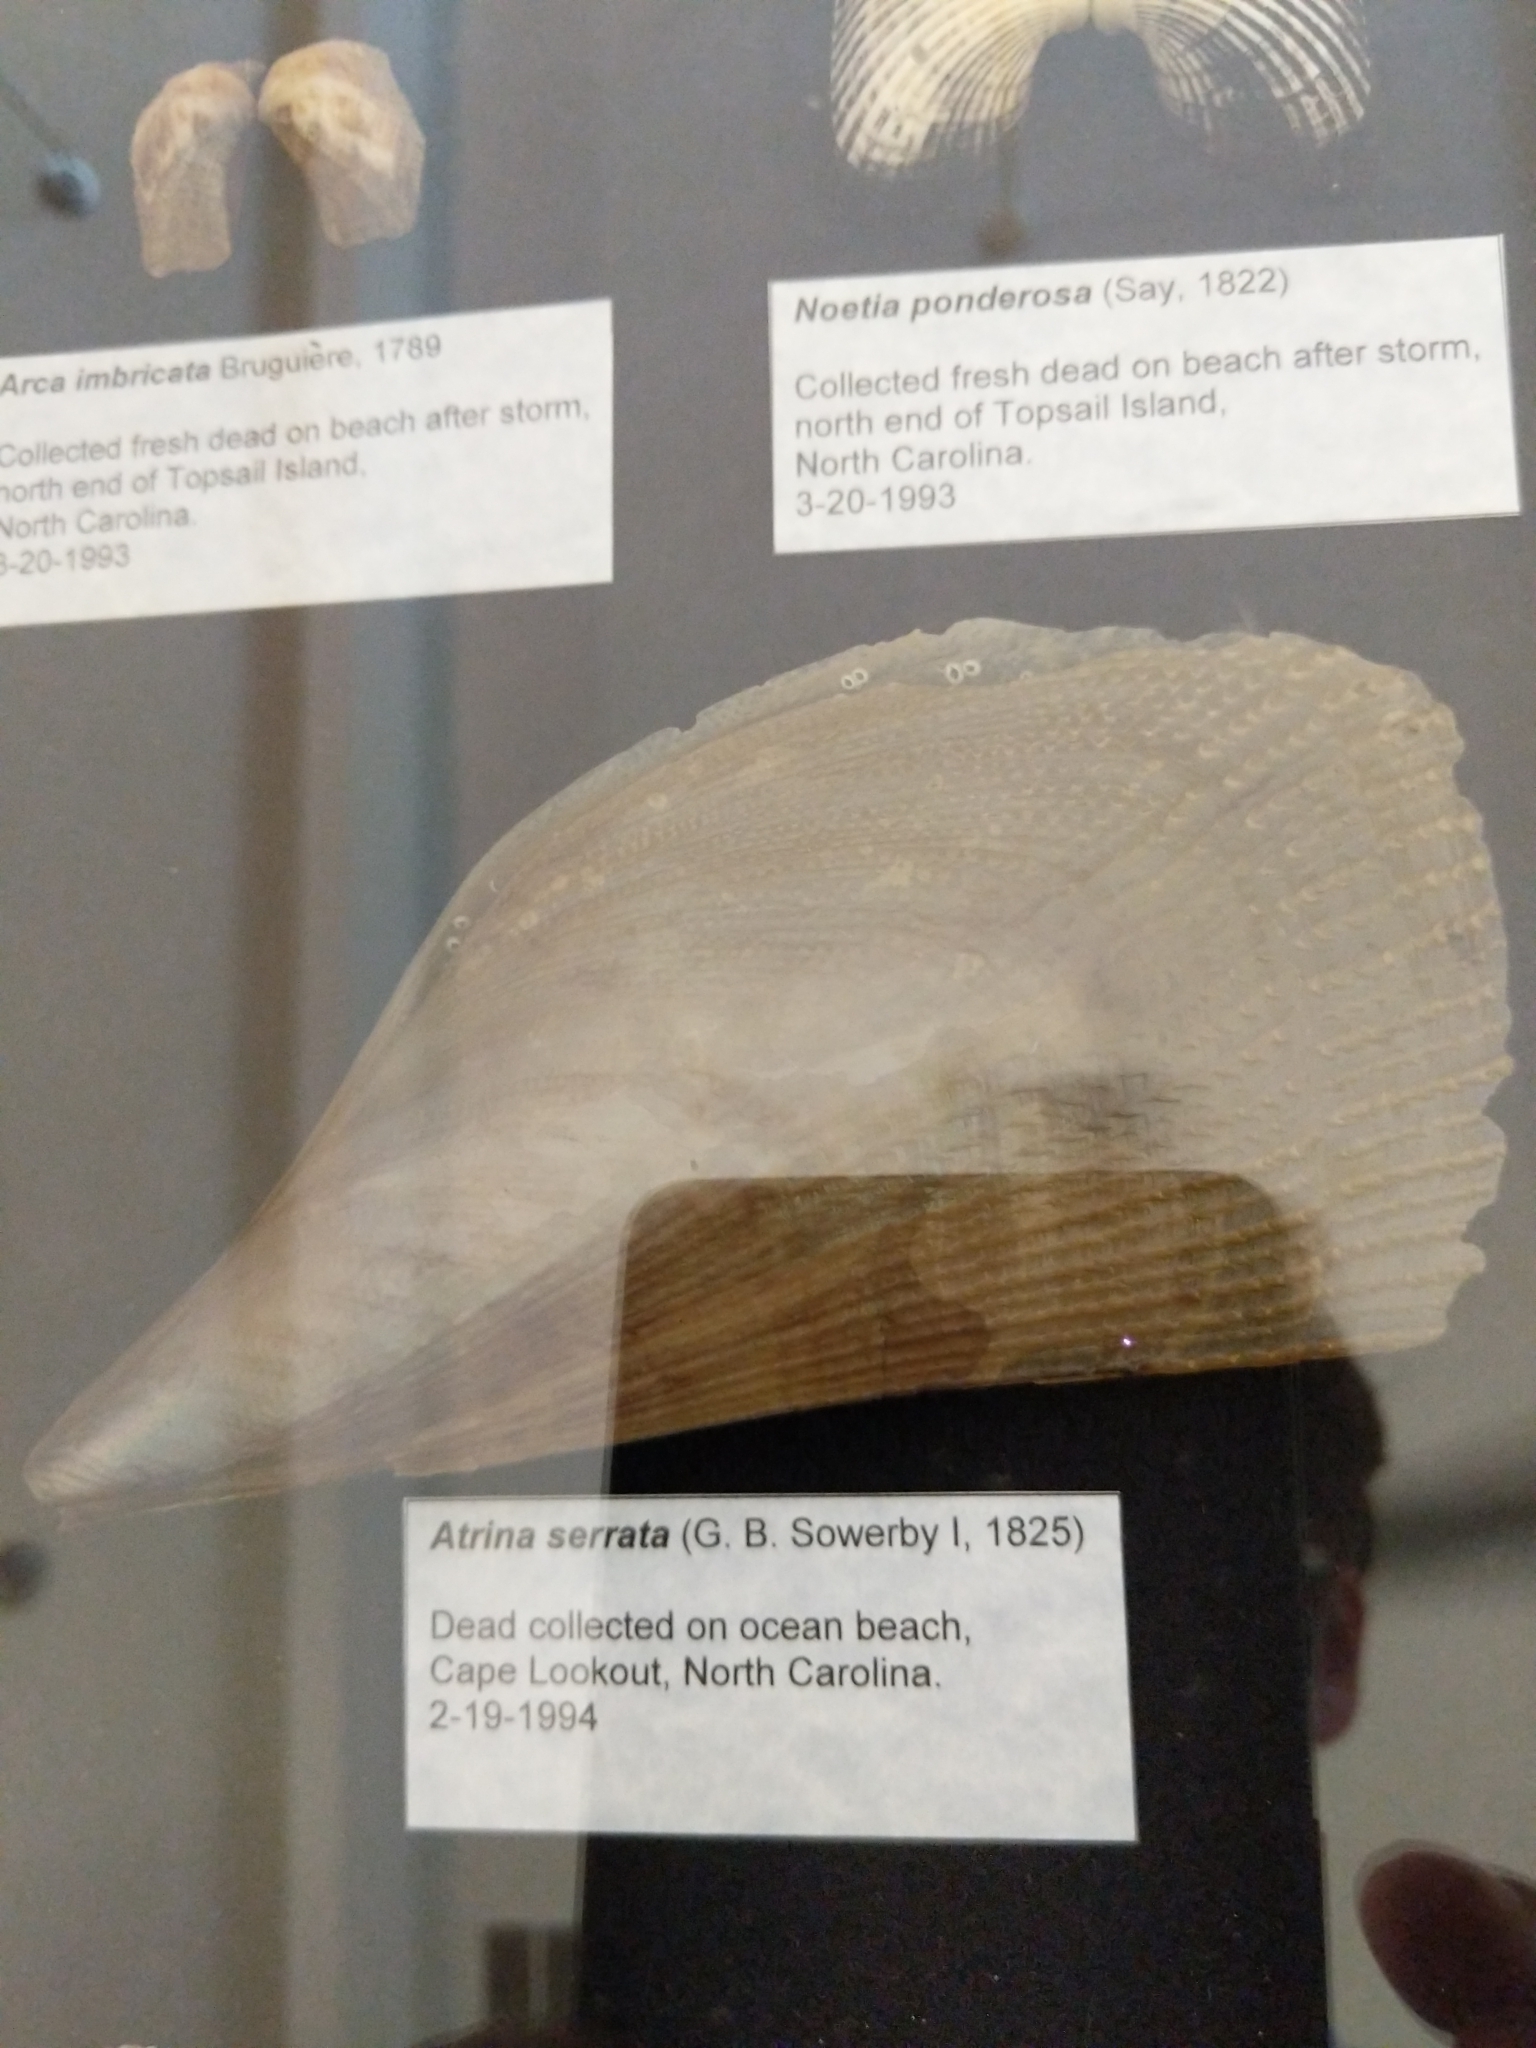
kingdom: Animalia
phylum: Mollusca
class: Bivalvia
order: Ostreida
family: Pinnidae
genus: Atrina
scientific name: Atrina serrata
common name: Saw-toothed penshell
